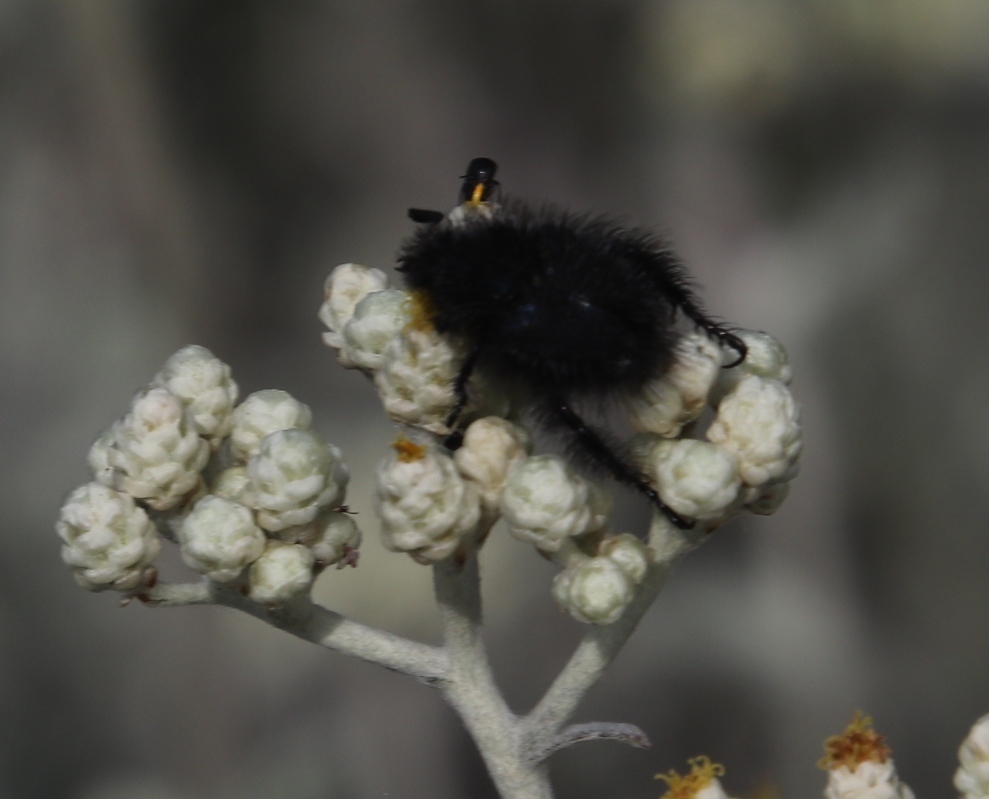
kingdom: Plantae
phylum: Tracheophyta
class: Magnoliopsida
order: Asterales
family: Asteraceae
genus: Helichrysum
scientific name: Helichrysum patulum
